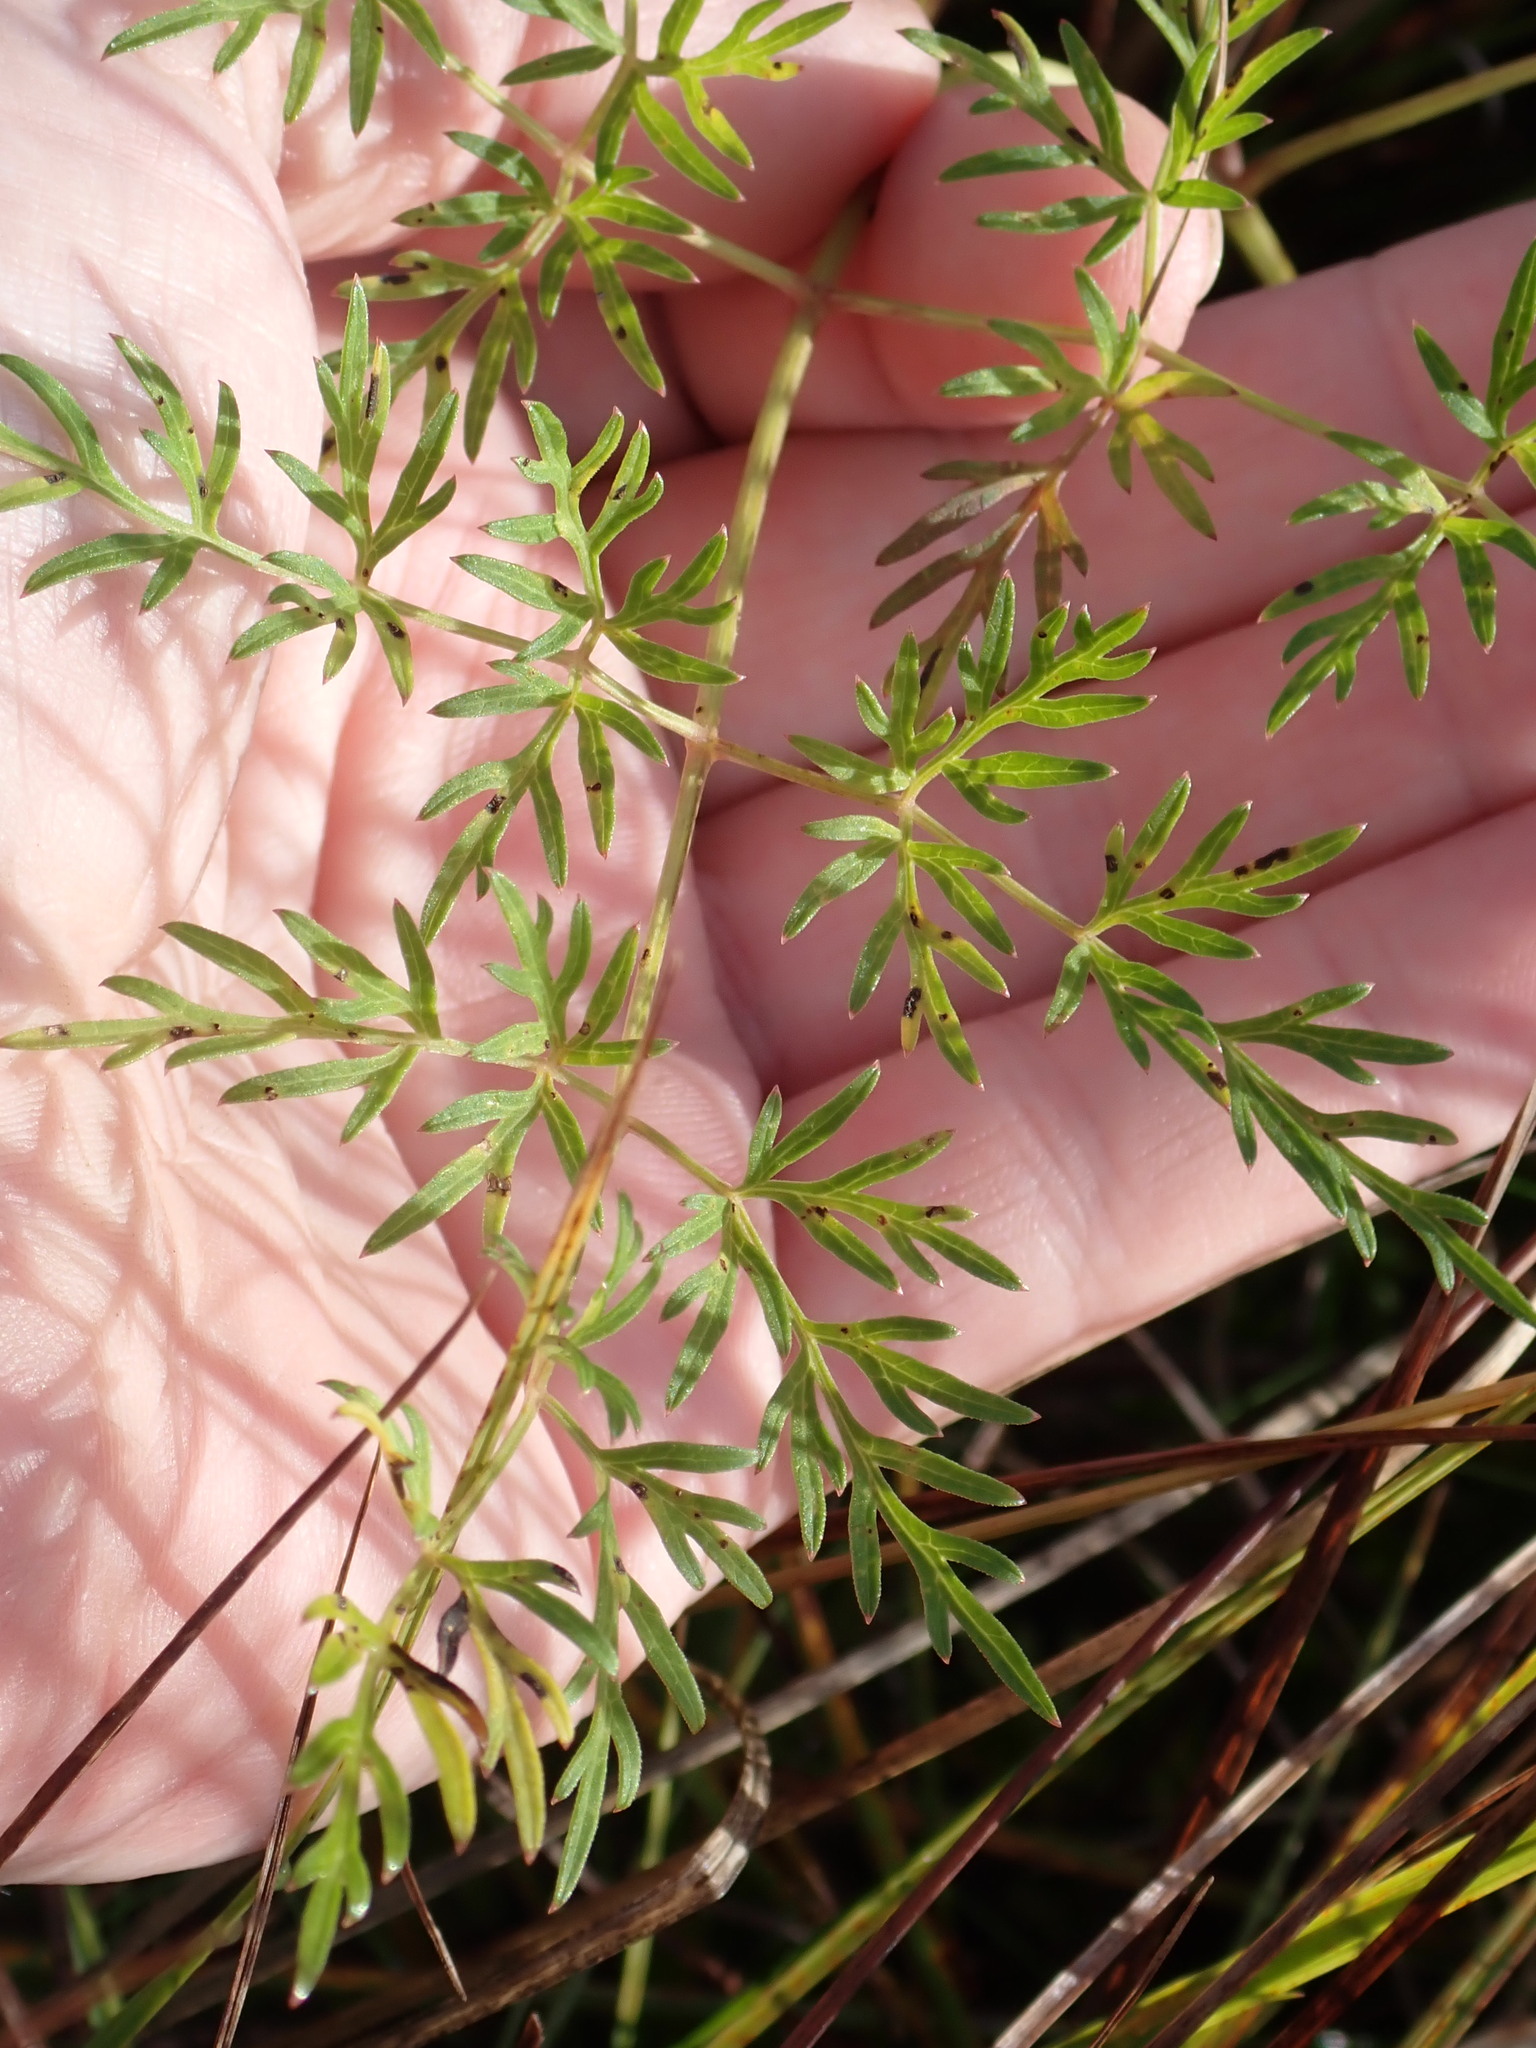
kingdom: Plantae
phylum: Tracheophyta
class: Magnoliopsida
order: Apiales
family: Apiaceae
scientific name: Apiaceae
